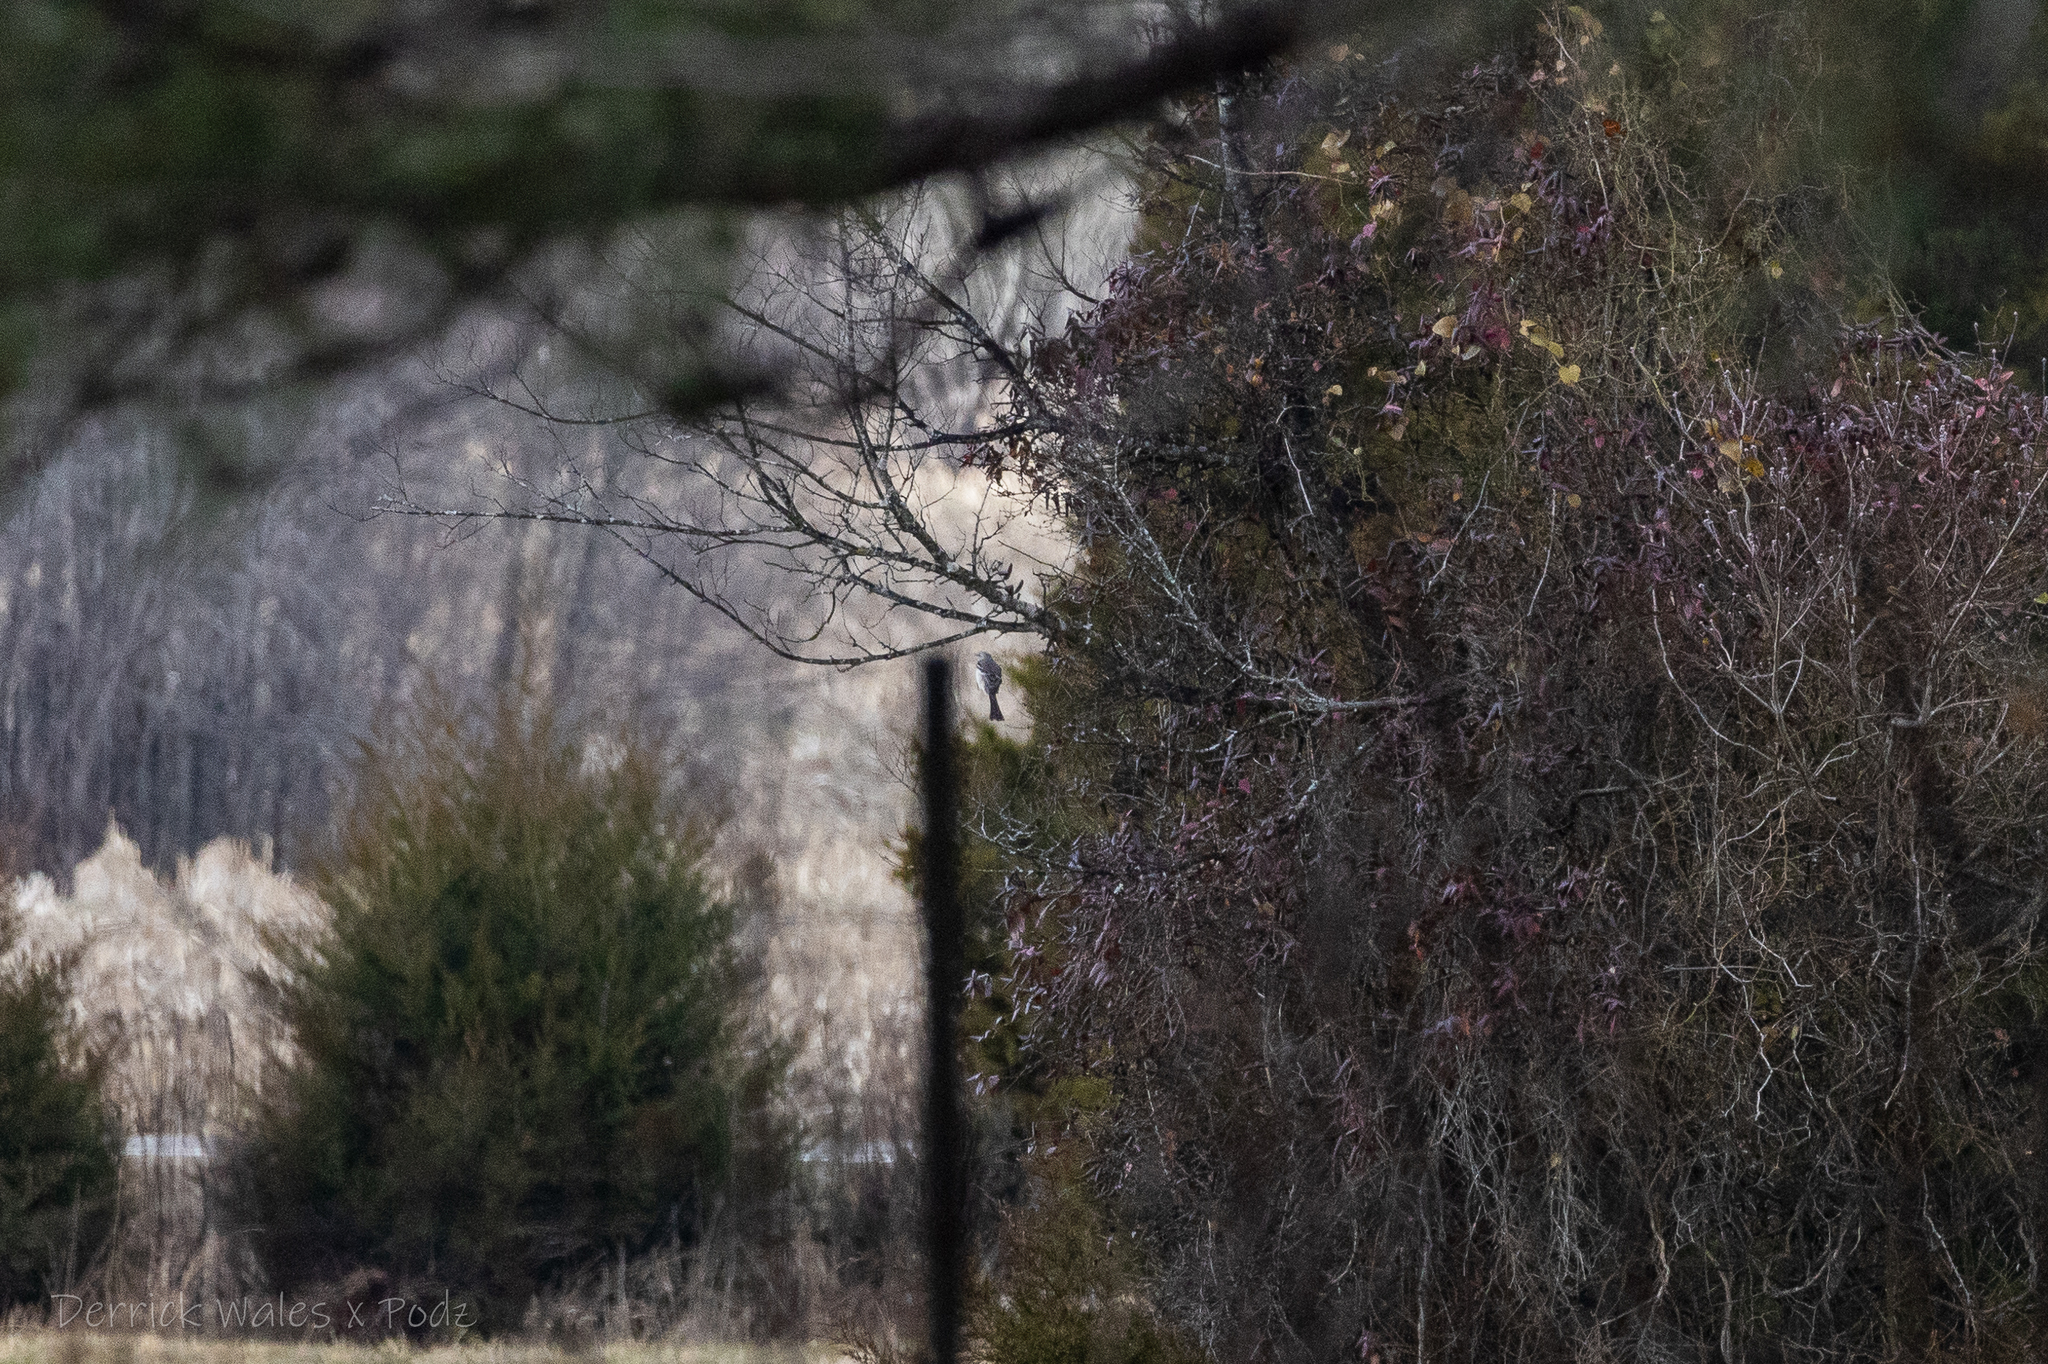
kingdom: Animalia
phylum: Chordata
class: Aves
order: Passeriformes
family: Mimidae
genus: Mimus
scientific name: Mimus polyglottos
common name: Northern mockingbird
